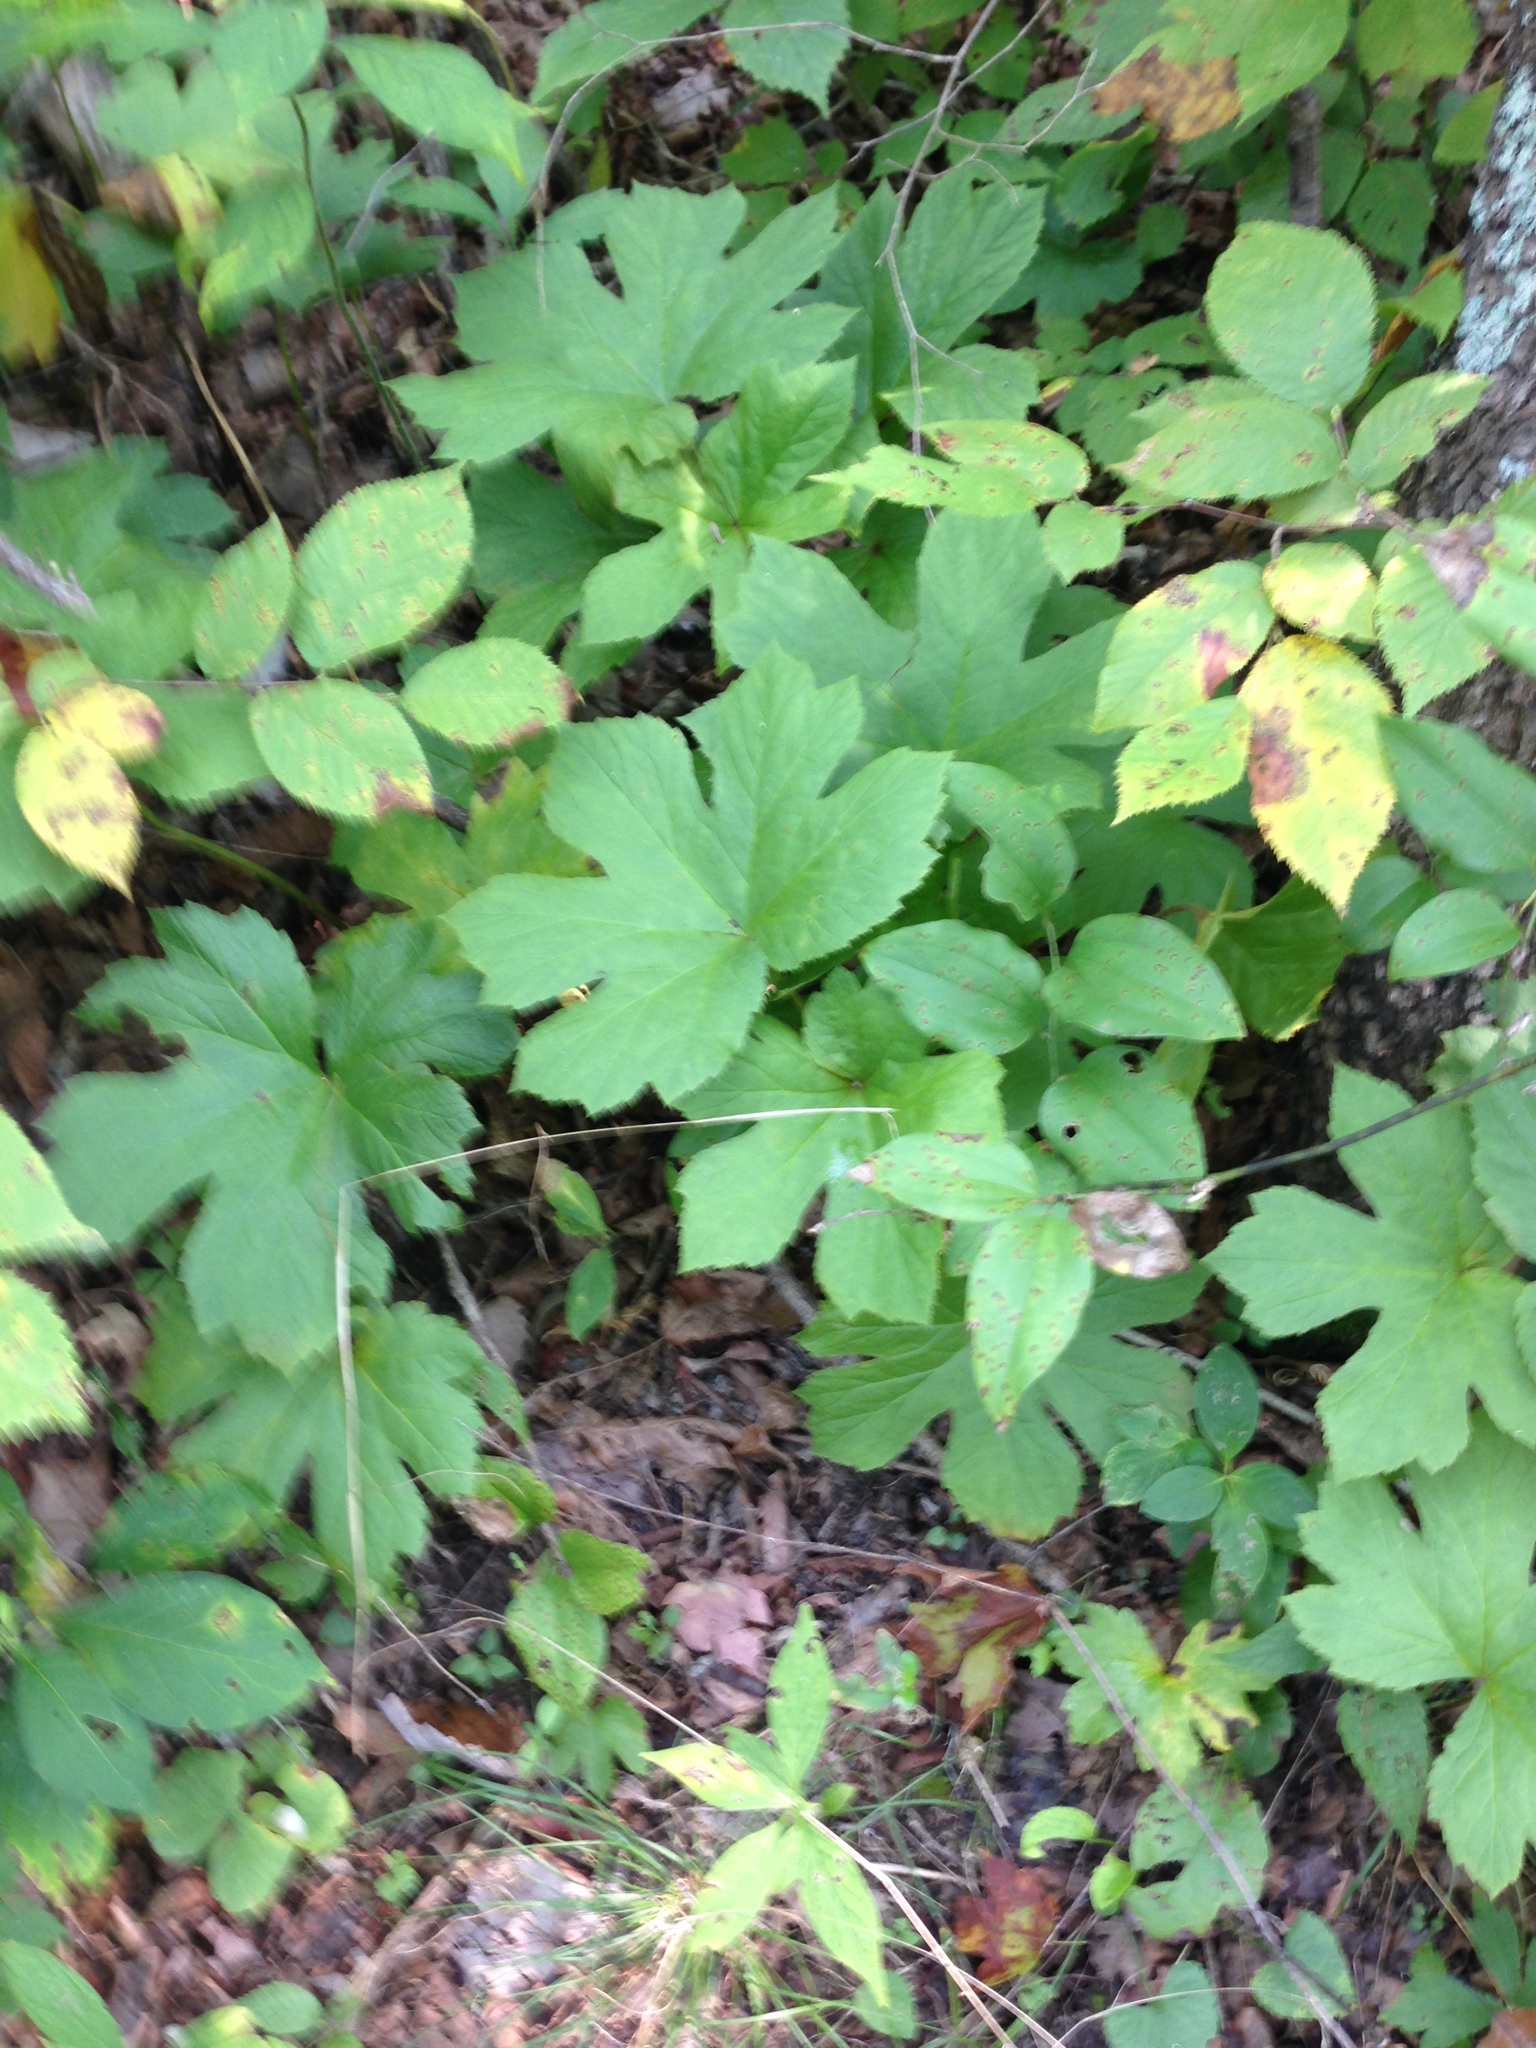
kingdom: Plantae
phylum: Tracheophyta
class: Magnoliopsida
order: Ranunculales
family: Ranunculaceae
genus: Hydrastis
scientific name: Hydrastis canadensis
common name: Goldenseal
